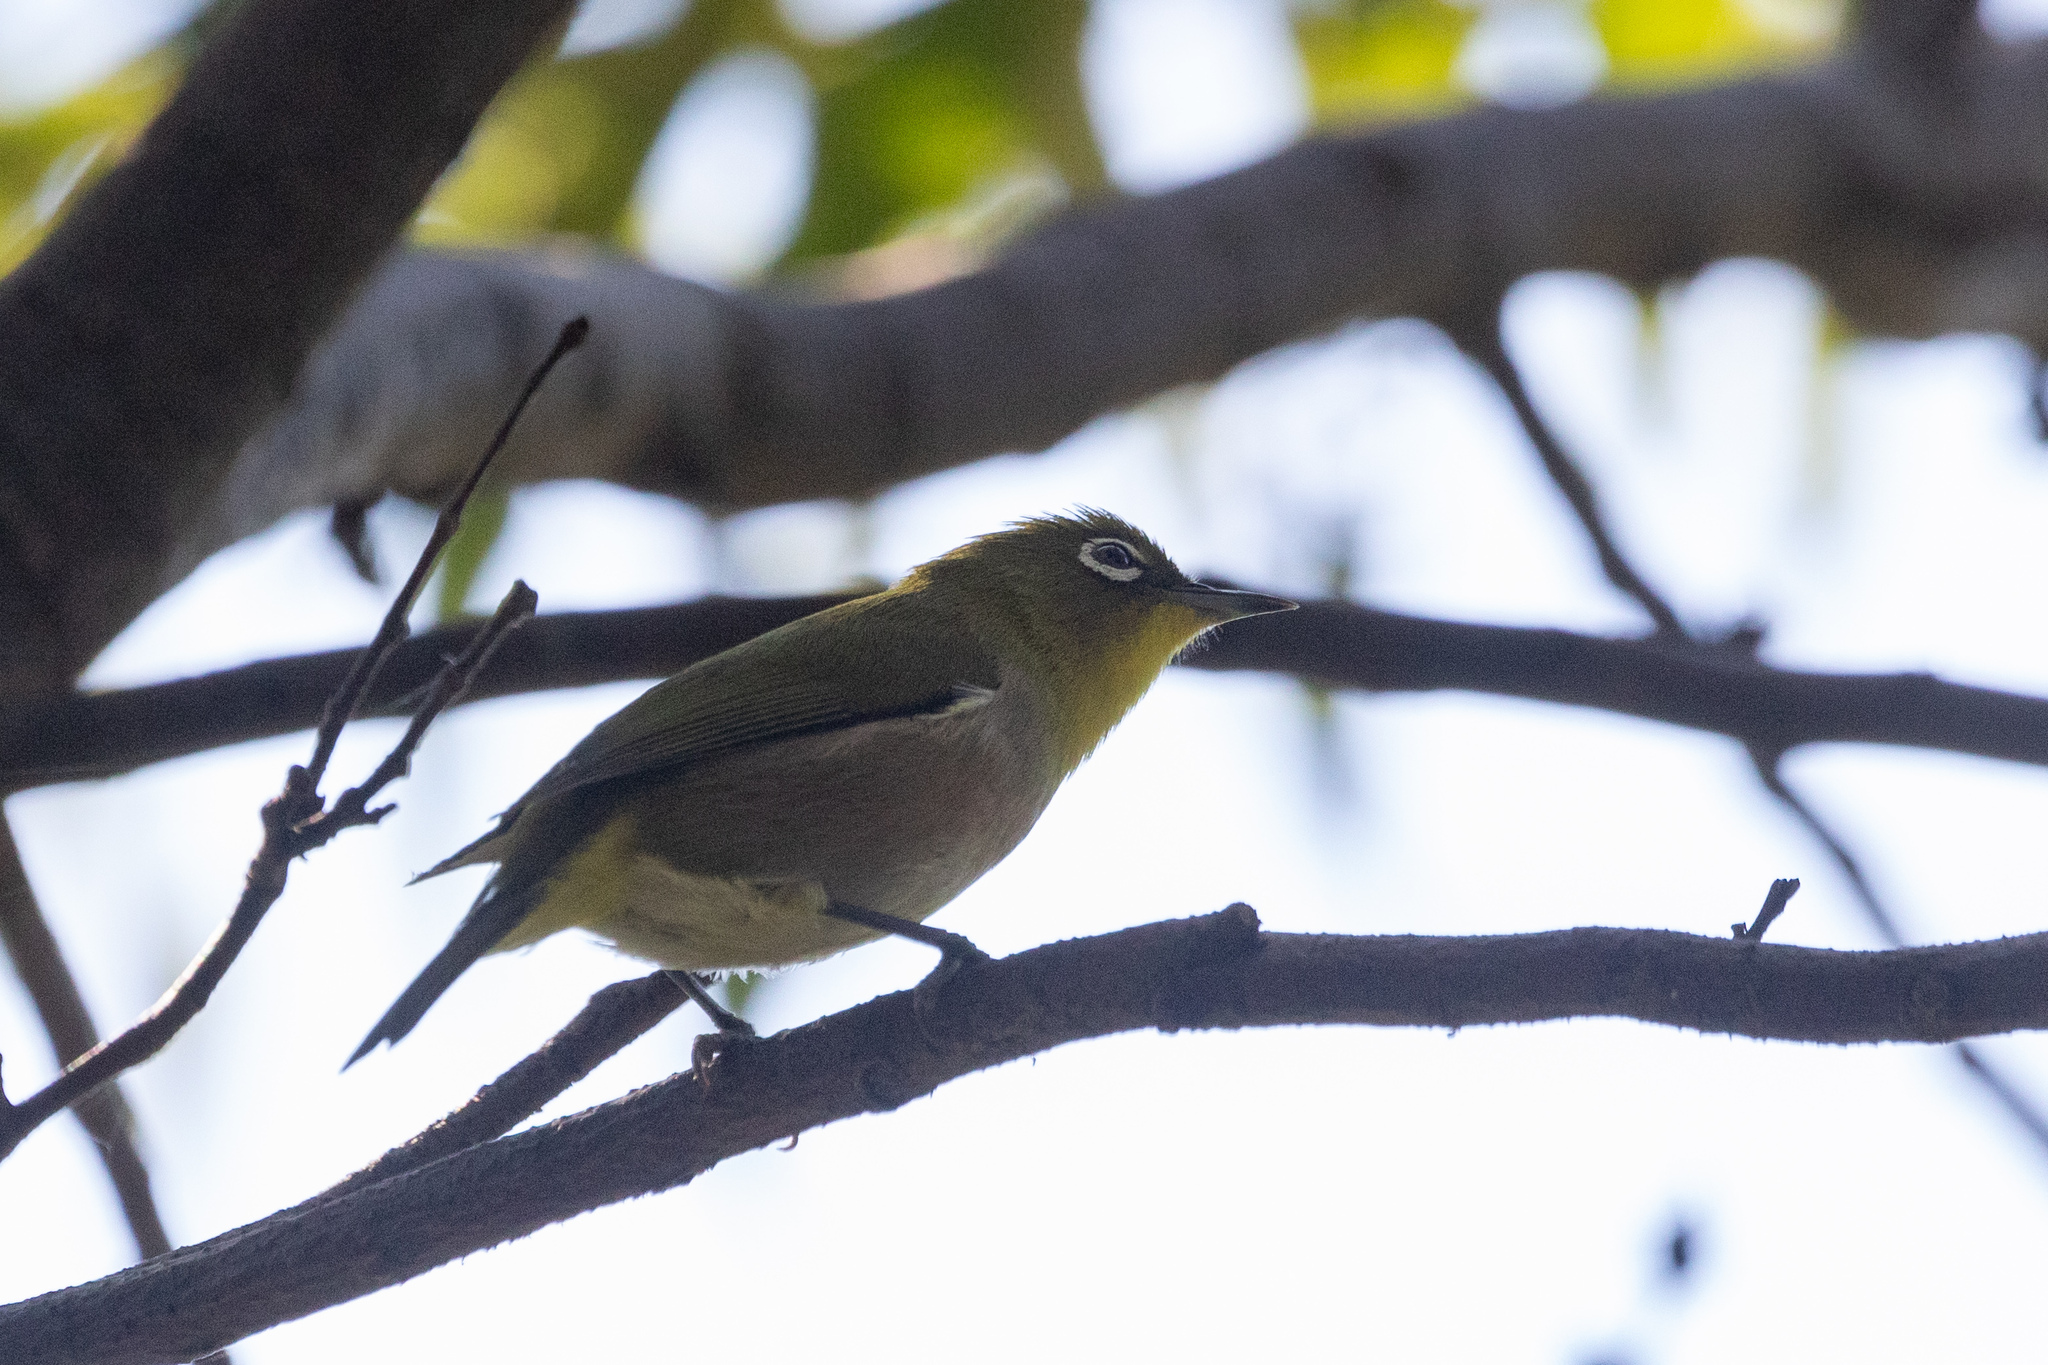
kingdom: Animalia
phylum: Chordata
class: Aves
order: Passeriformes
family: Zosteropidae
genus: Zosterops
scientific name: Zosterops japonicus
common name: Japanese white-eye
